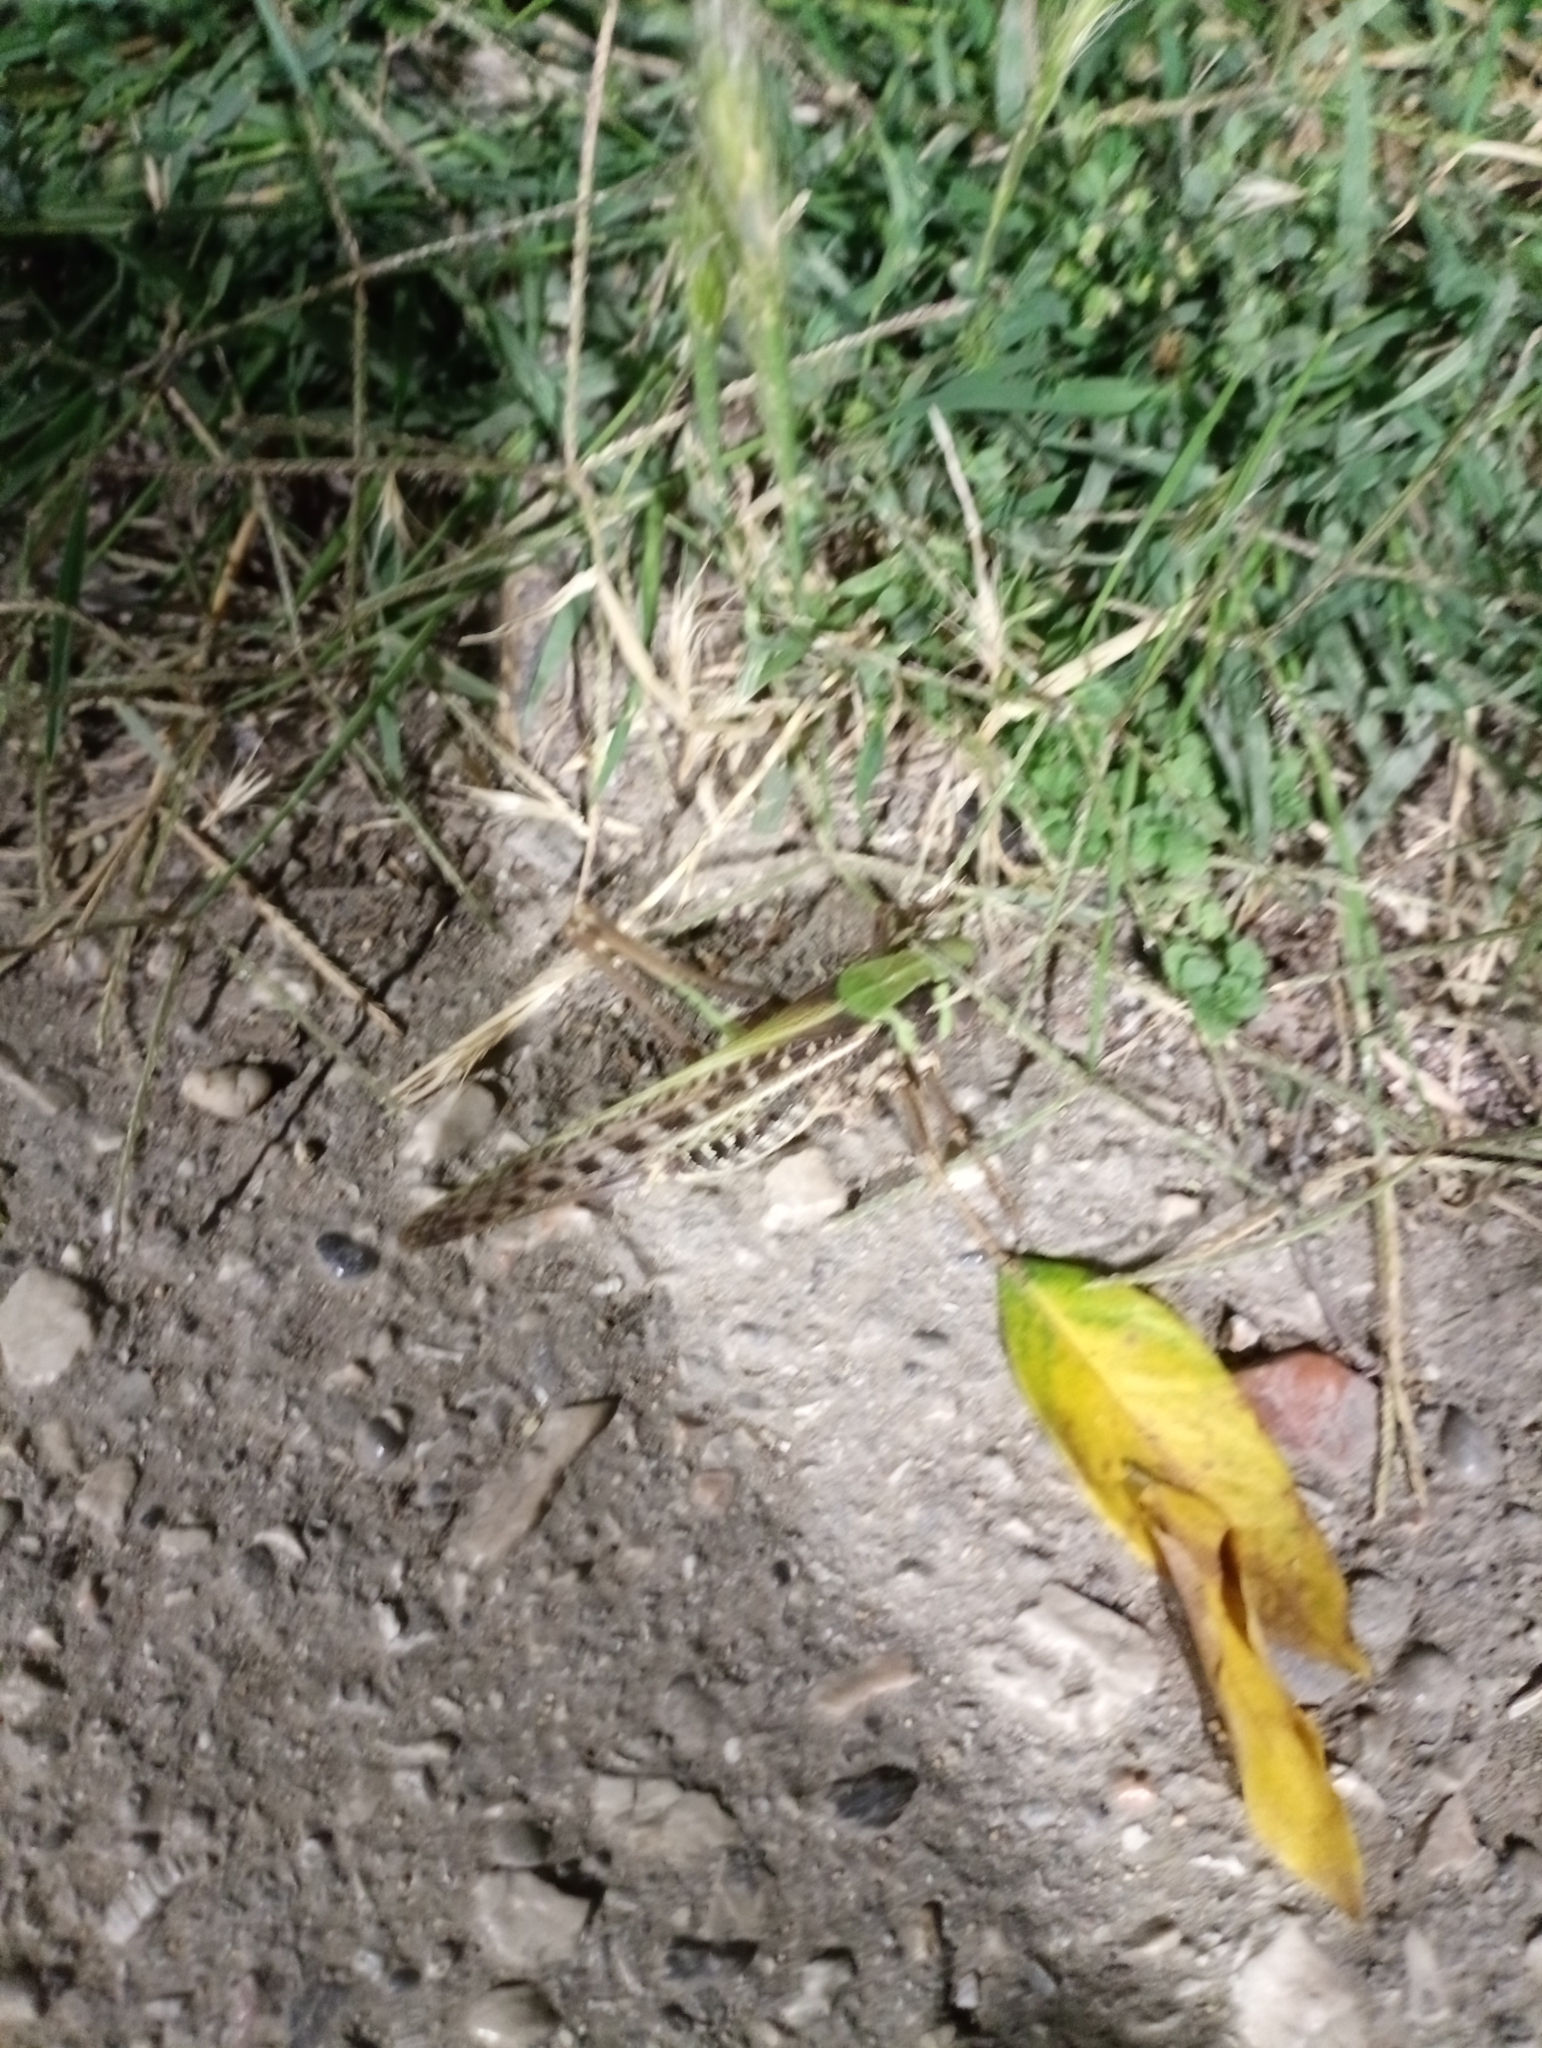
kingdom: Animalia
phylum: Arthropoda
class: Insecta
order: Orthoptera
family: Tettigoniidae
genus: Decticus
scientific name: Decticus albifrons
